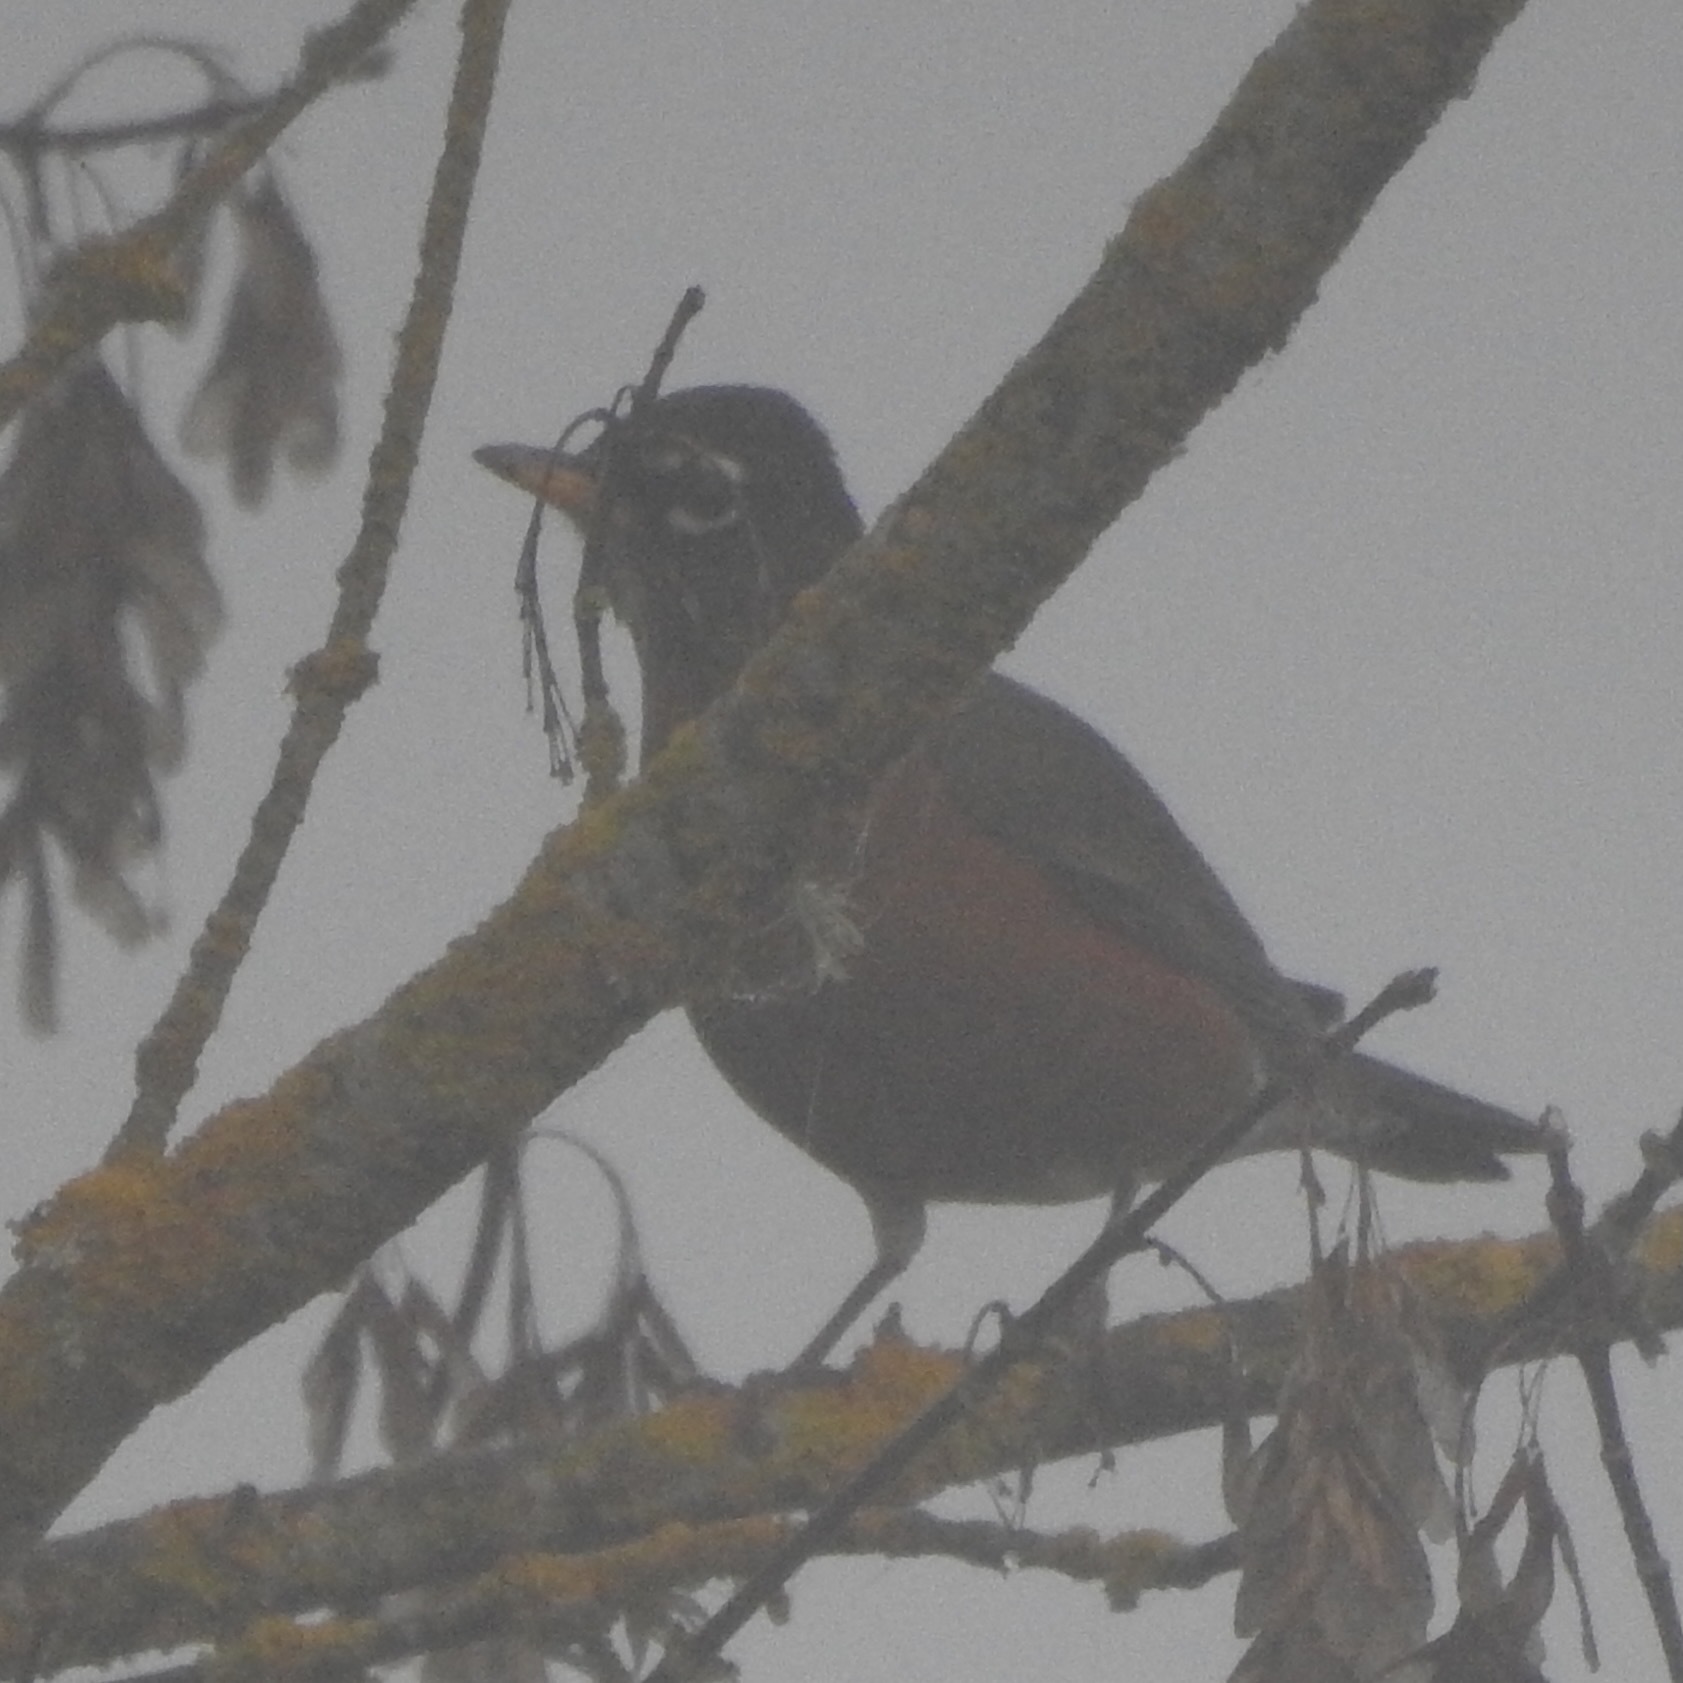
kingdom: Animalia
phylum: Chordata
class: Aves
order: Passeriformes
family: Turdidae
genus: Turdus
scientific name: Turdus migratorius
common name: American robin
